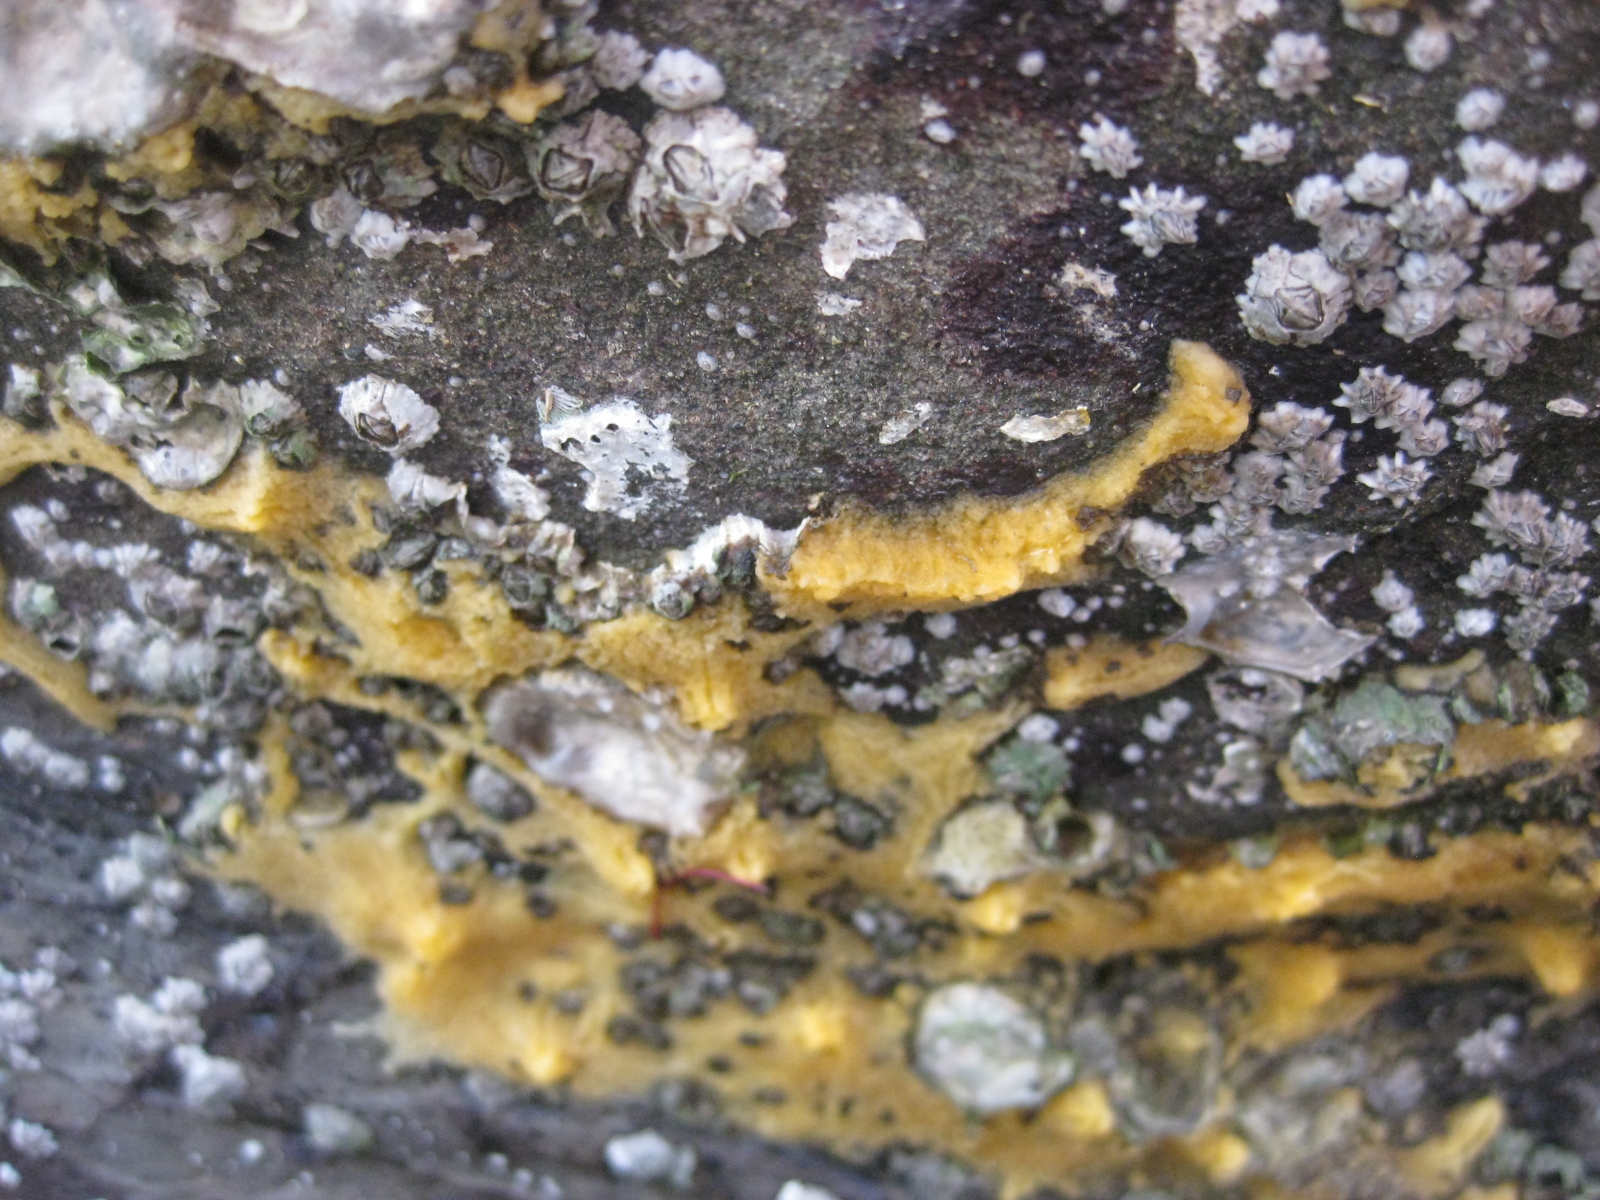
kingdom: Animalia
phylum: Arthropoda
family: Elminiidae
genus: Austrominius
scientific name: Austrominius modestus
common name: Australasian barnacle
